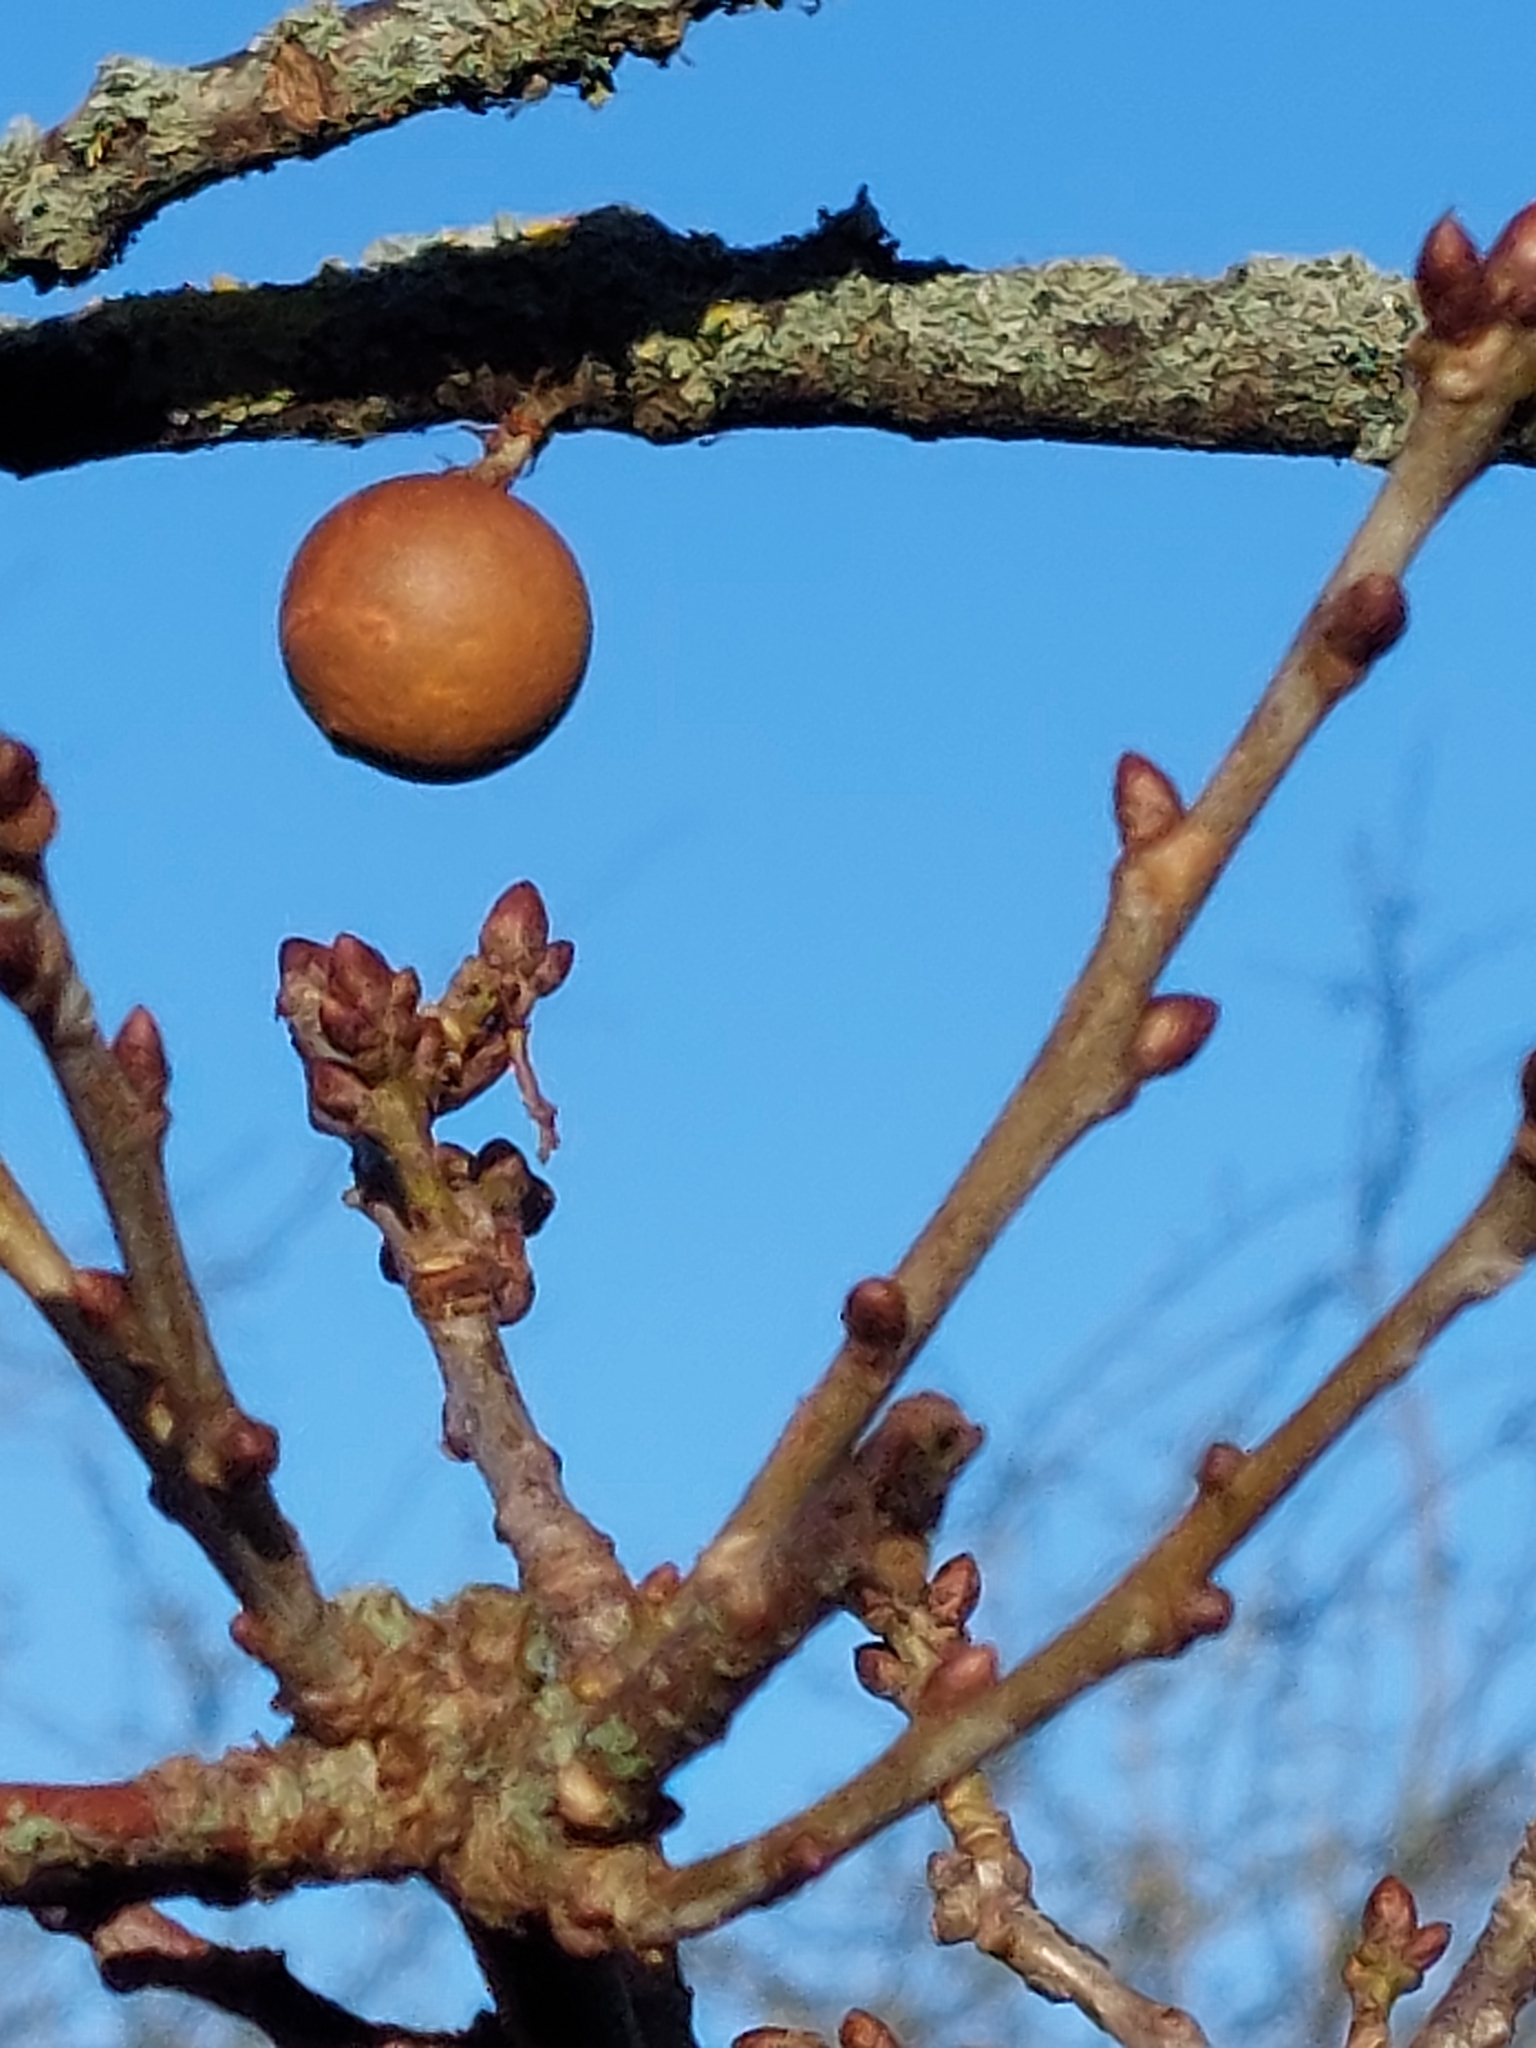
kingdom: Animalia
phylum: Arthropoda
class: Insecta
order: Hymenoptera
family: Cynipidae
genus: Andricus
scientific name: Andricus kollari
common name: Marble gall
